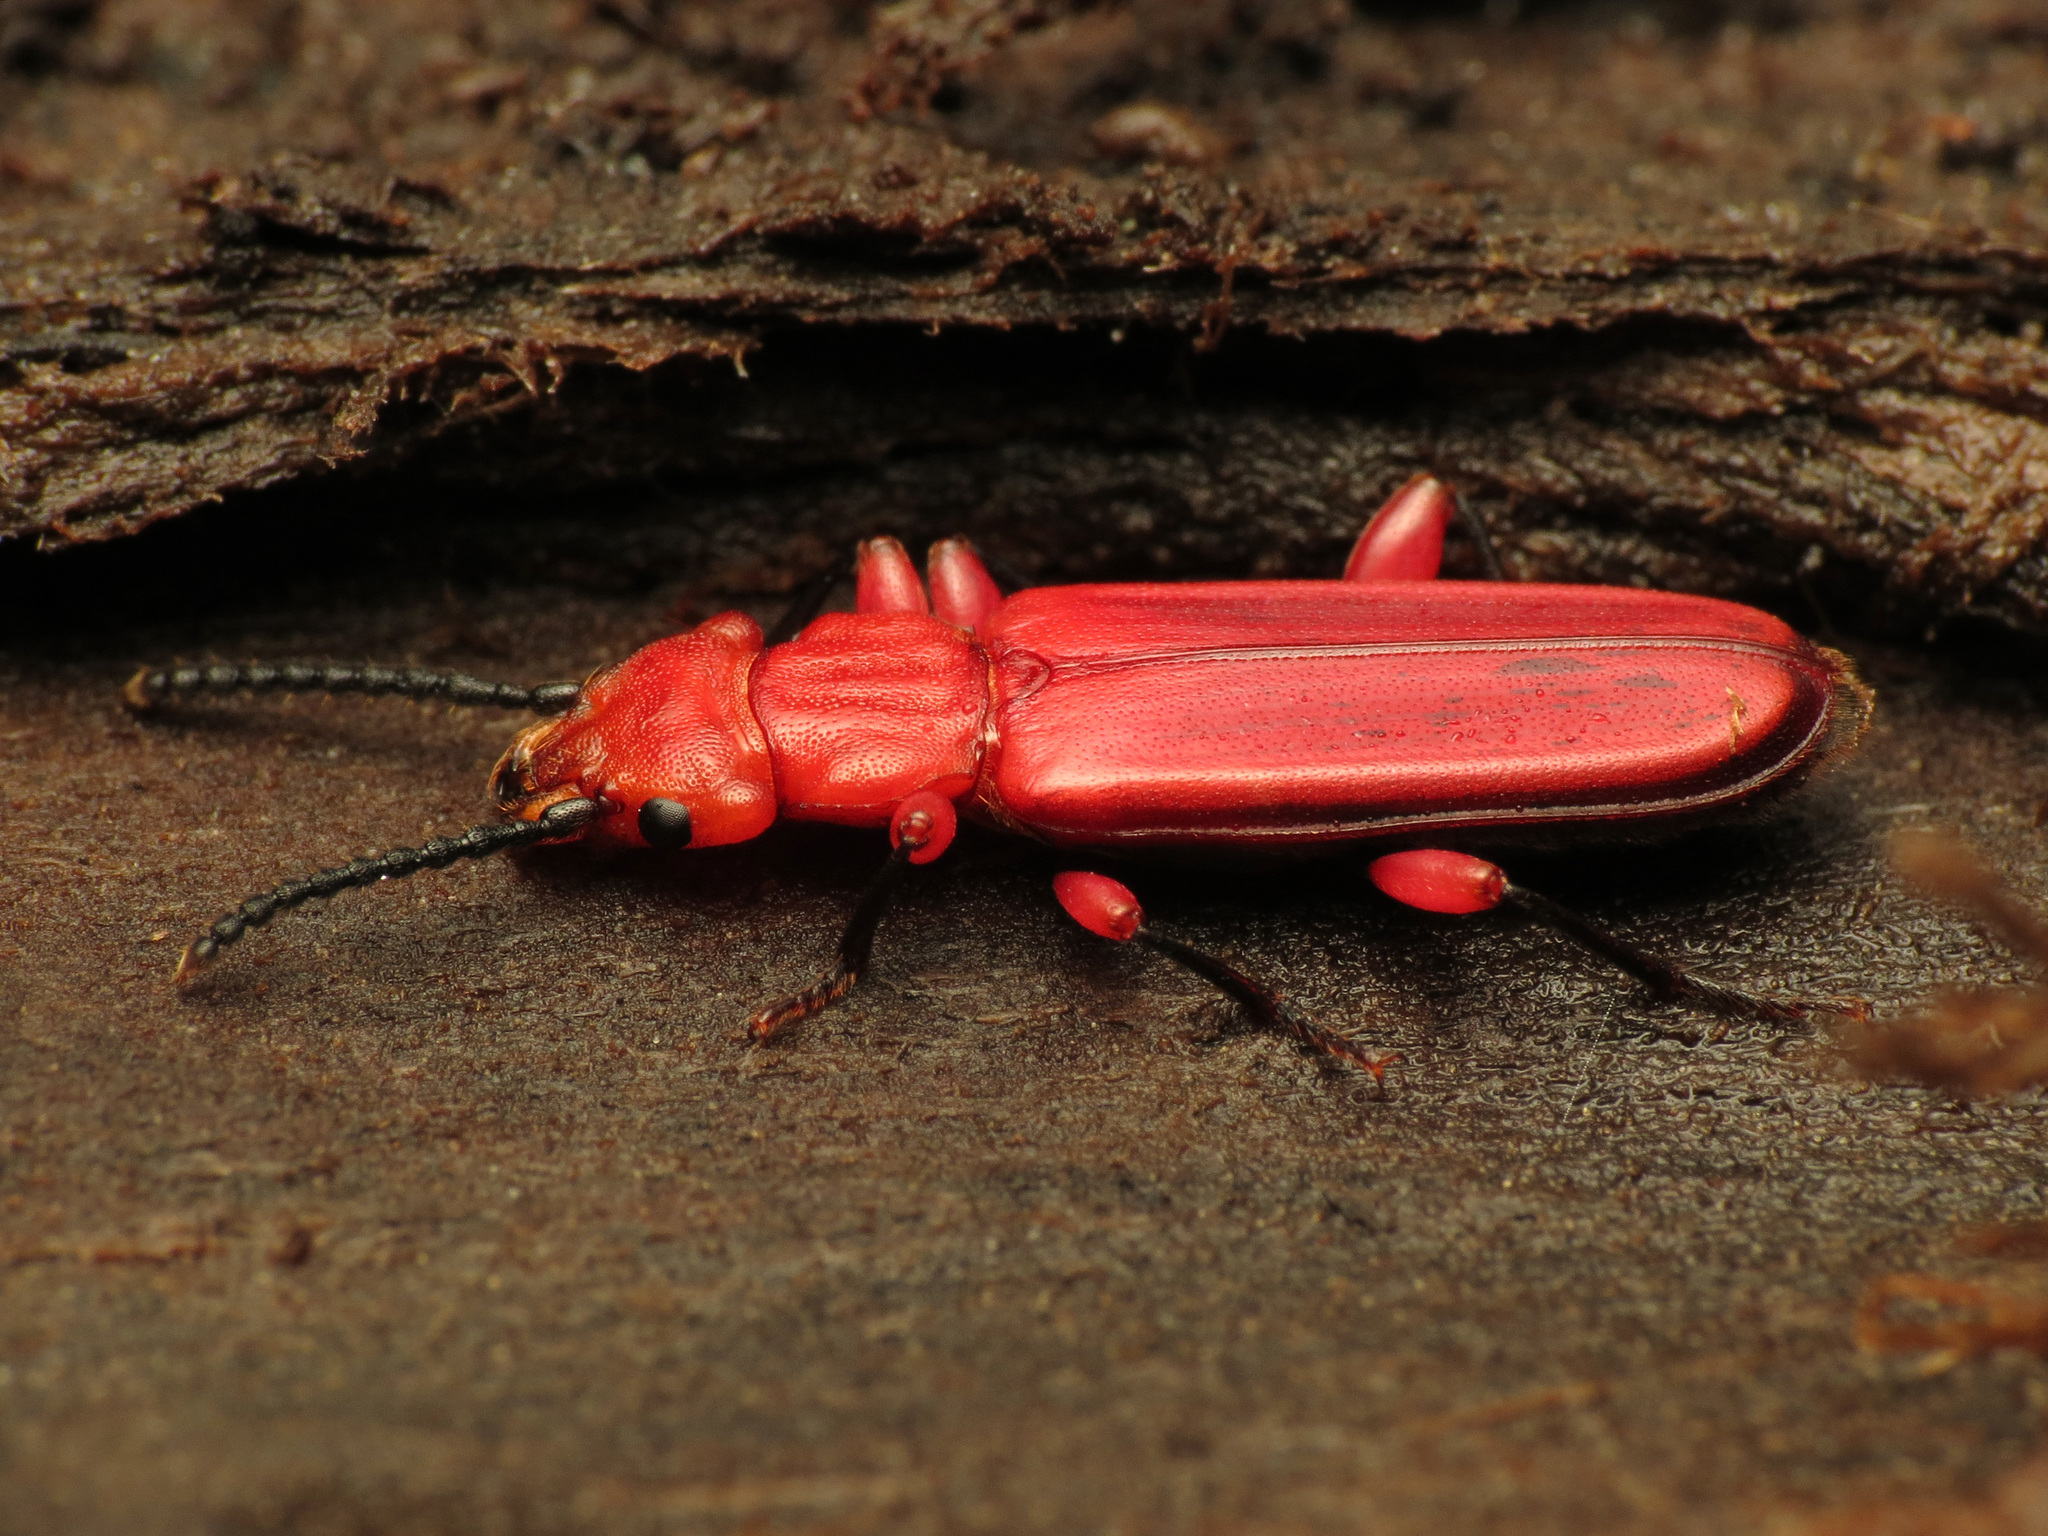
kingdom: Animalia
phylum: Arthropoda
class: Insecta
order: Coleoptera
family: Cucujidae
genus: Cucujus
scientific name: Cucujus clavipes
